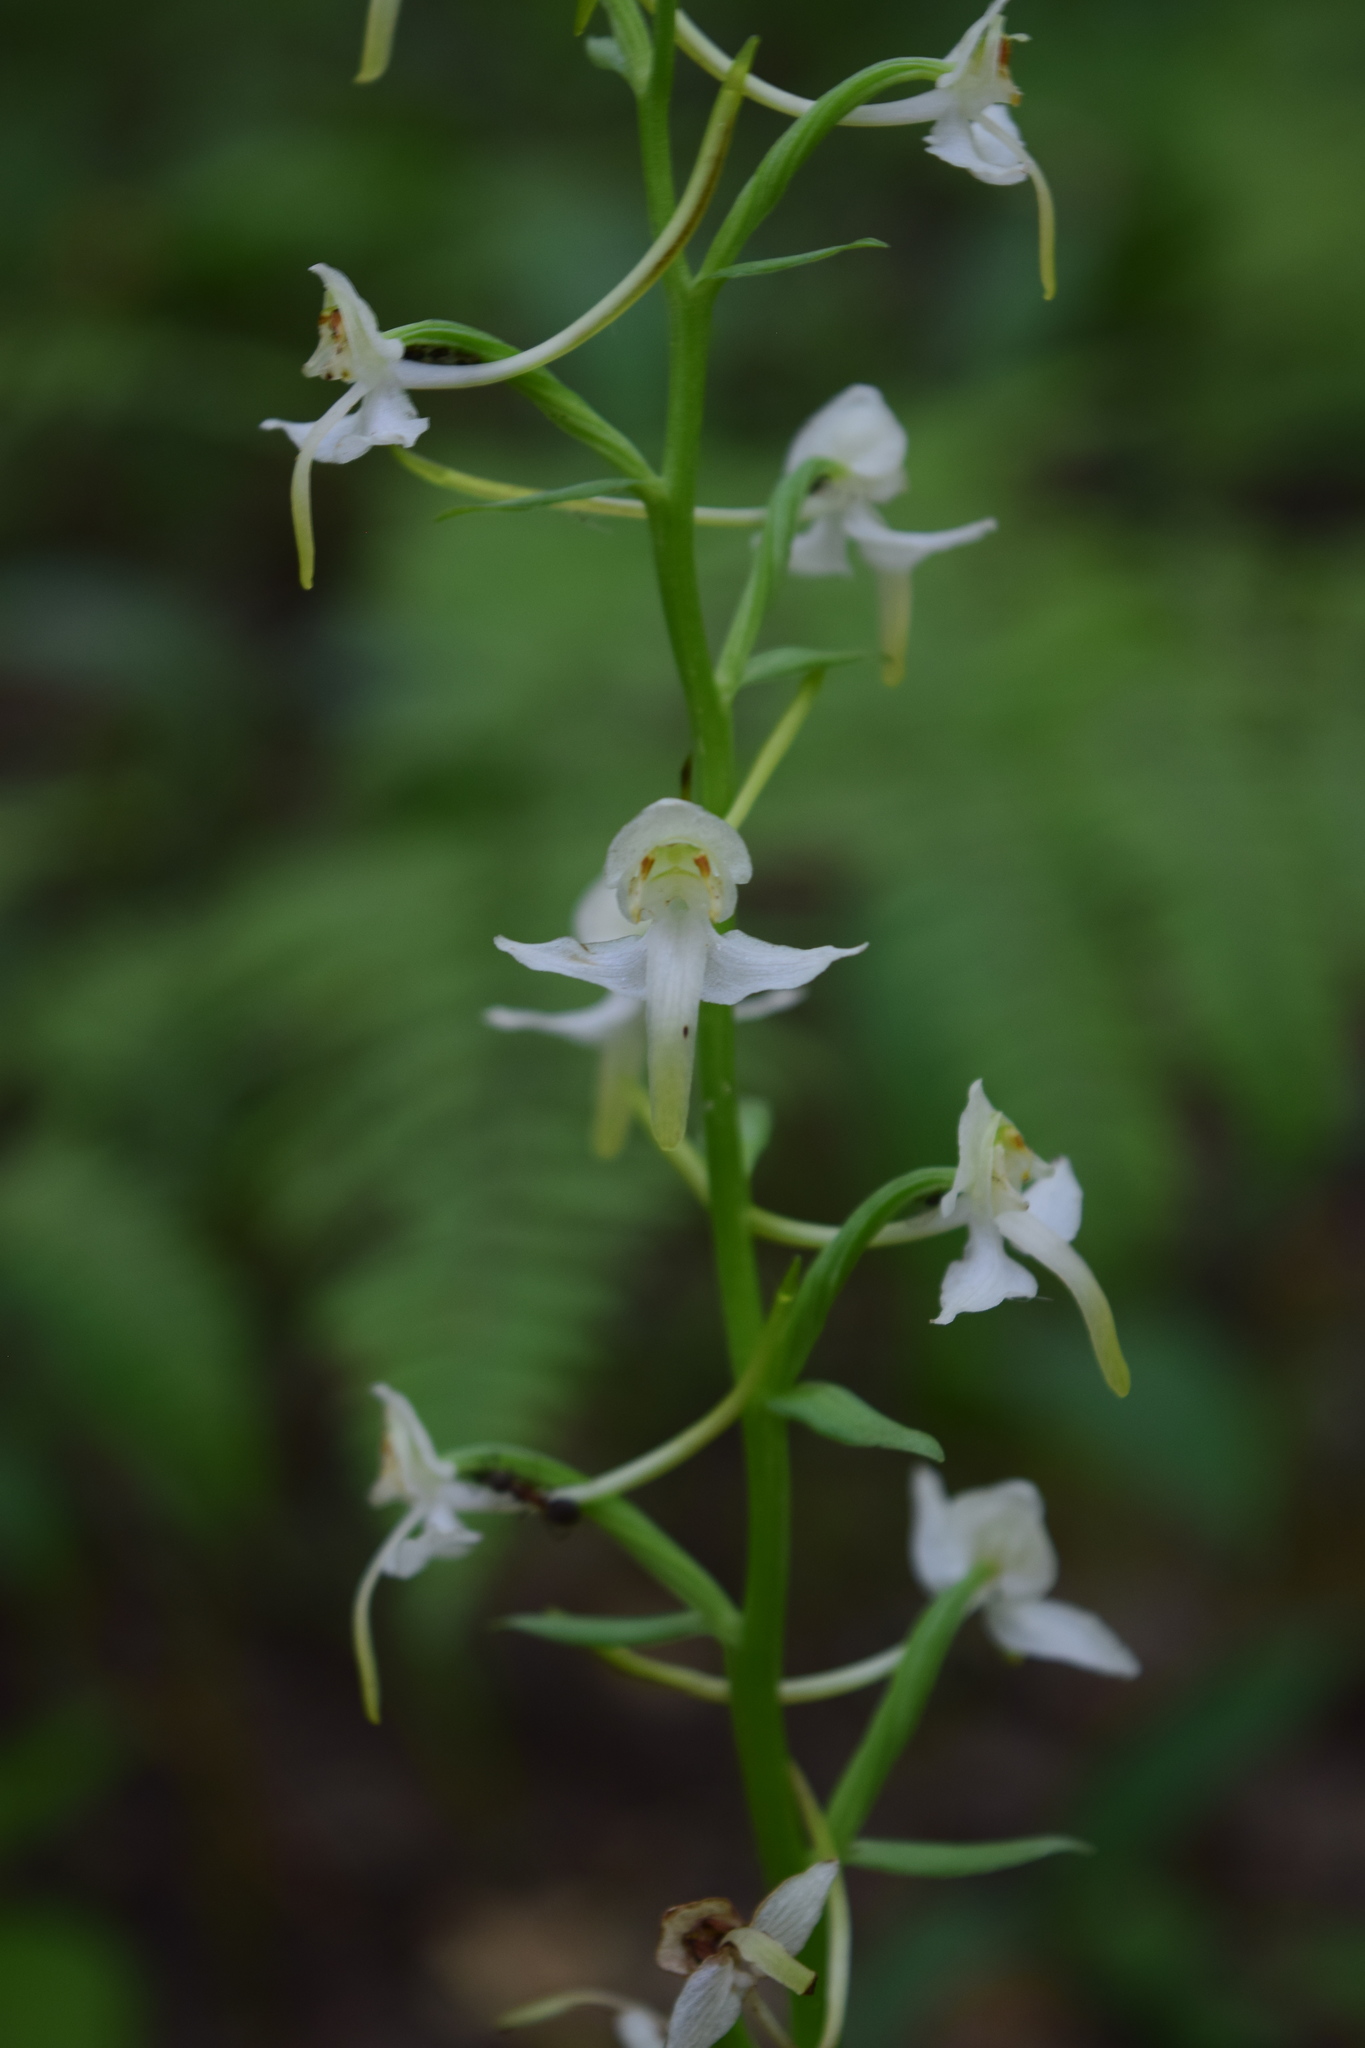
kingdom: Plantae
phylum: Tracheophyta
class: Liliopsida
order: Asparagales
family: Orchidaceae
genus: Platanthera
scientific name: Platanthera chlorantha
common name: Greater butterfly-orchid
